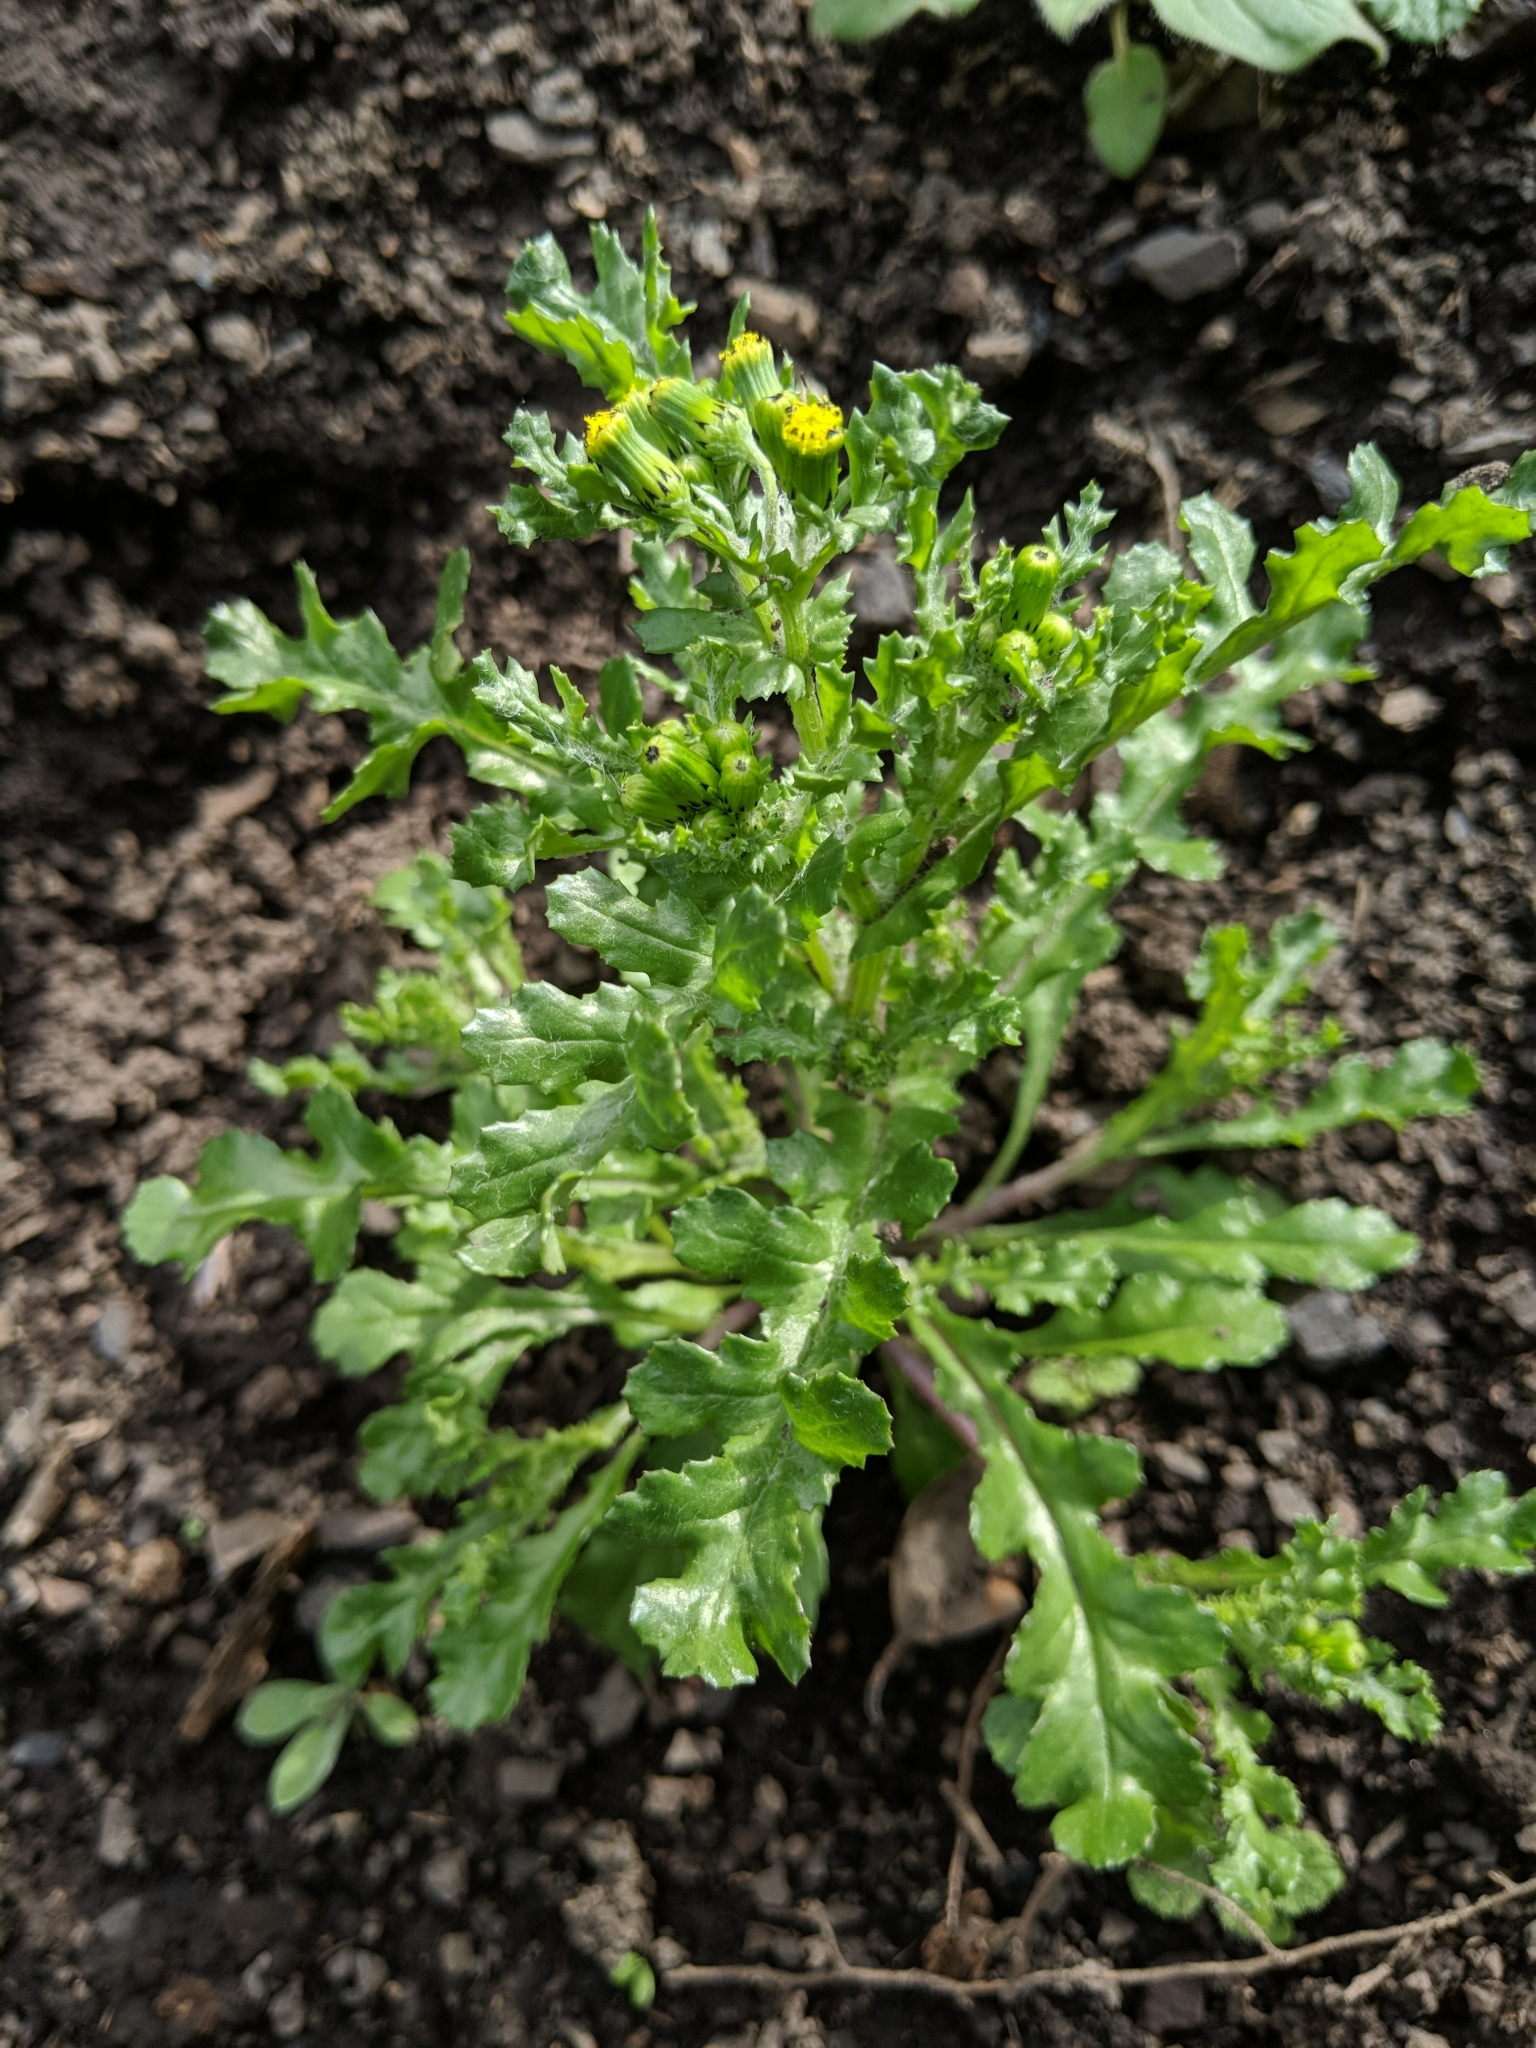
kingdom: Plantae
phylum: Tracheophyta
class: Magnoliopsida
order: Asterales
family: Asteraceae
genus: Senecio
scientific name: Senecio vulgaris
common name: Old-man-in-the-spring
